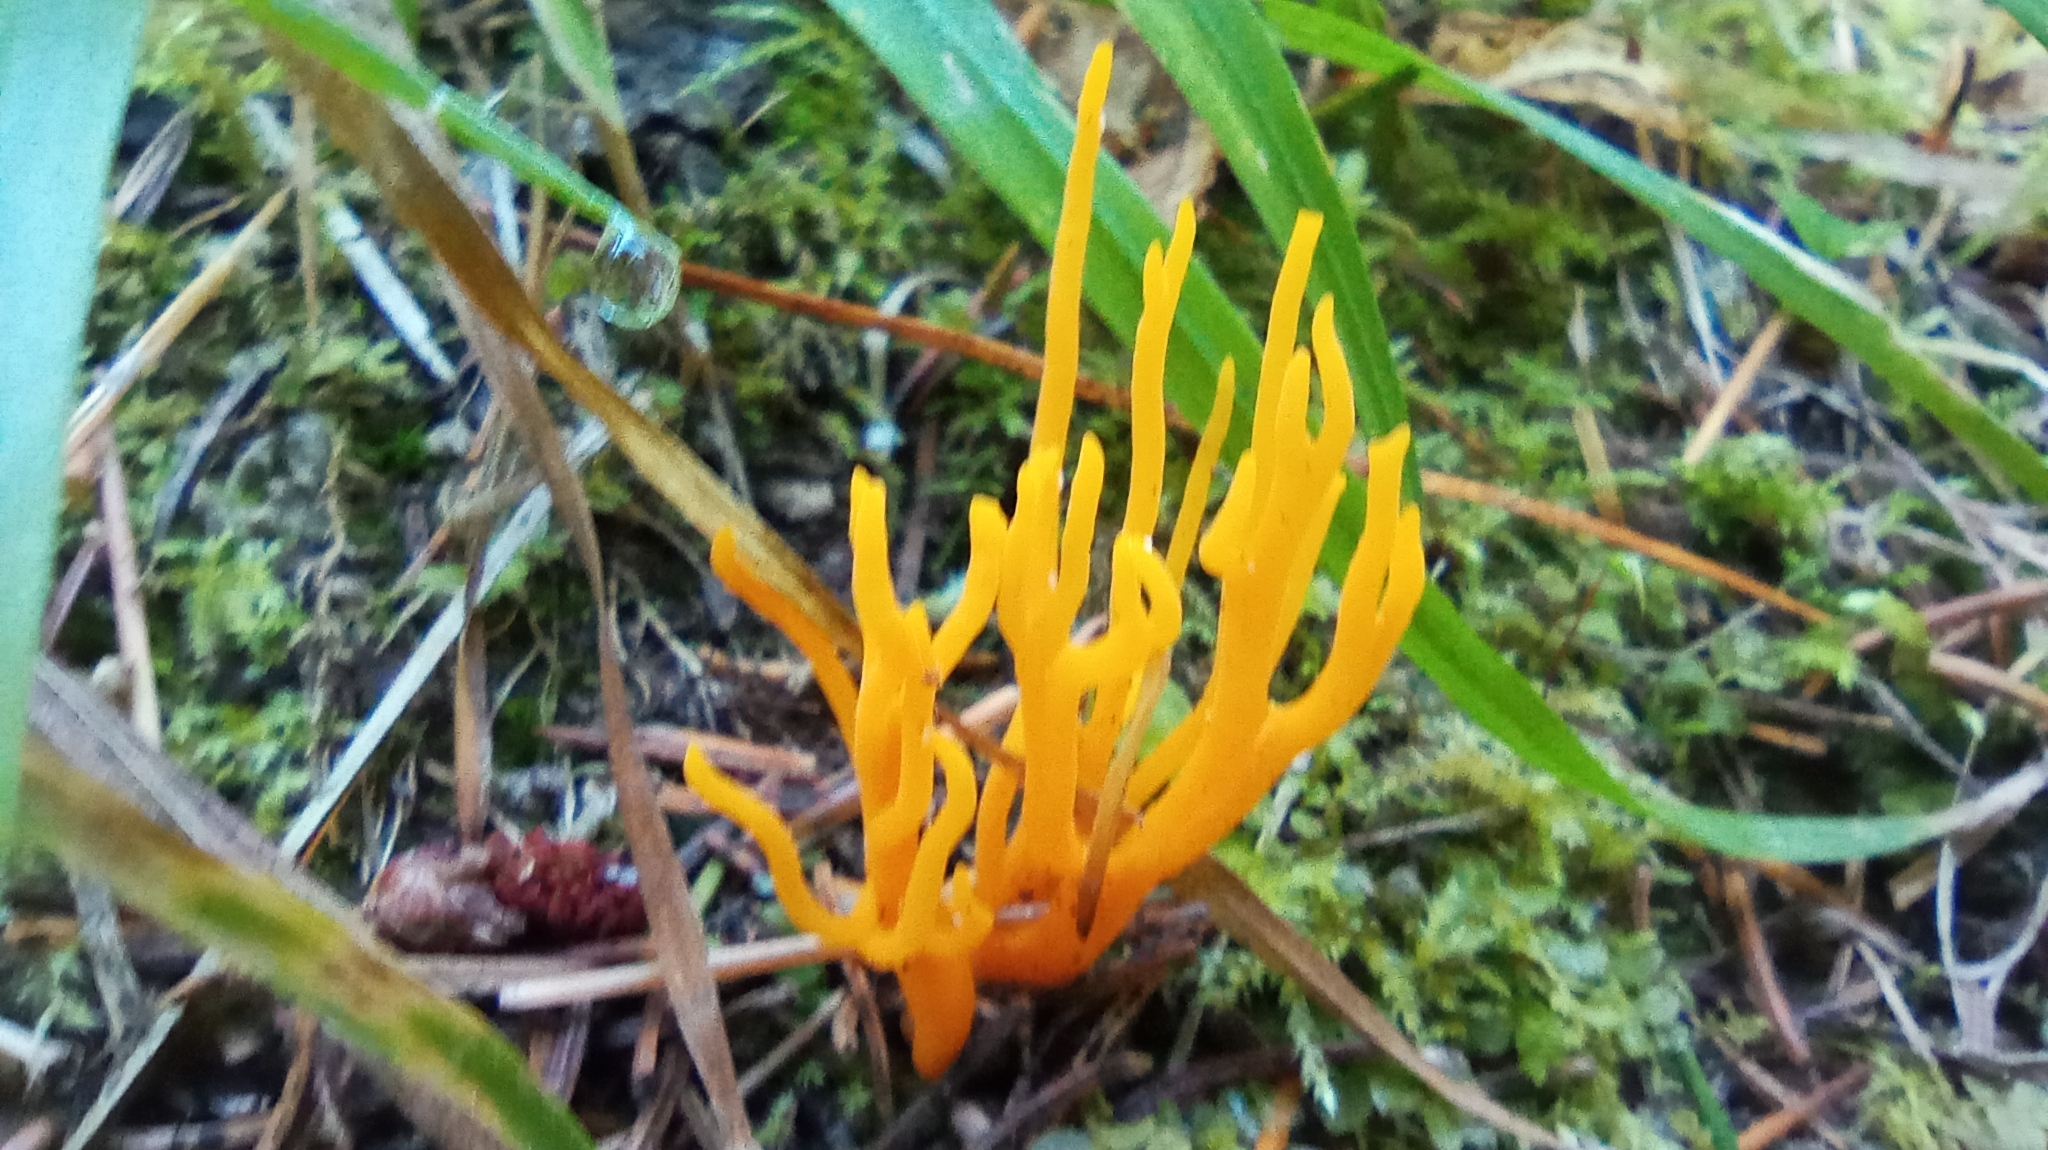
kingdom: Fungi
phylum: Basidiomycota
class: Dacrymycetes
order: Dacrymycetales
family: Dacrymycetaceae
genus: Calocera
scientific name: Calocera viscosa
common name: Yellow stagshorn
